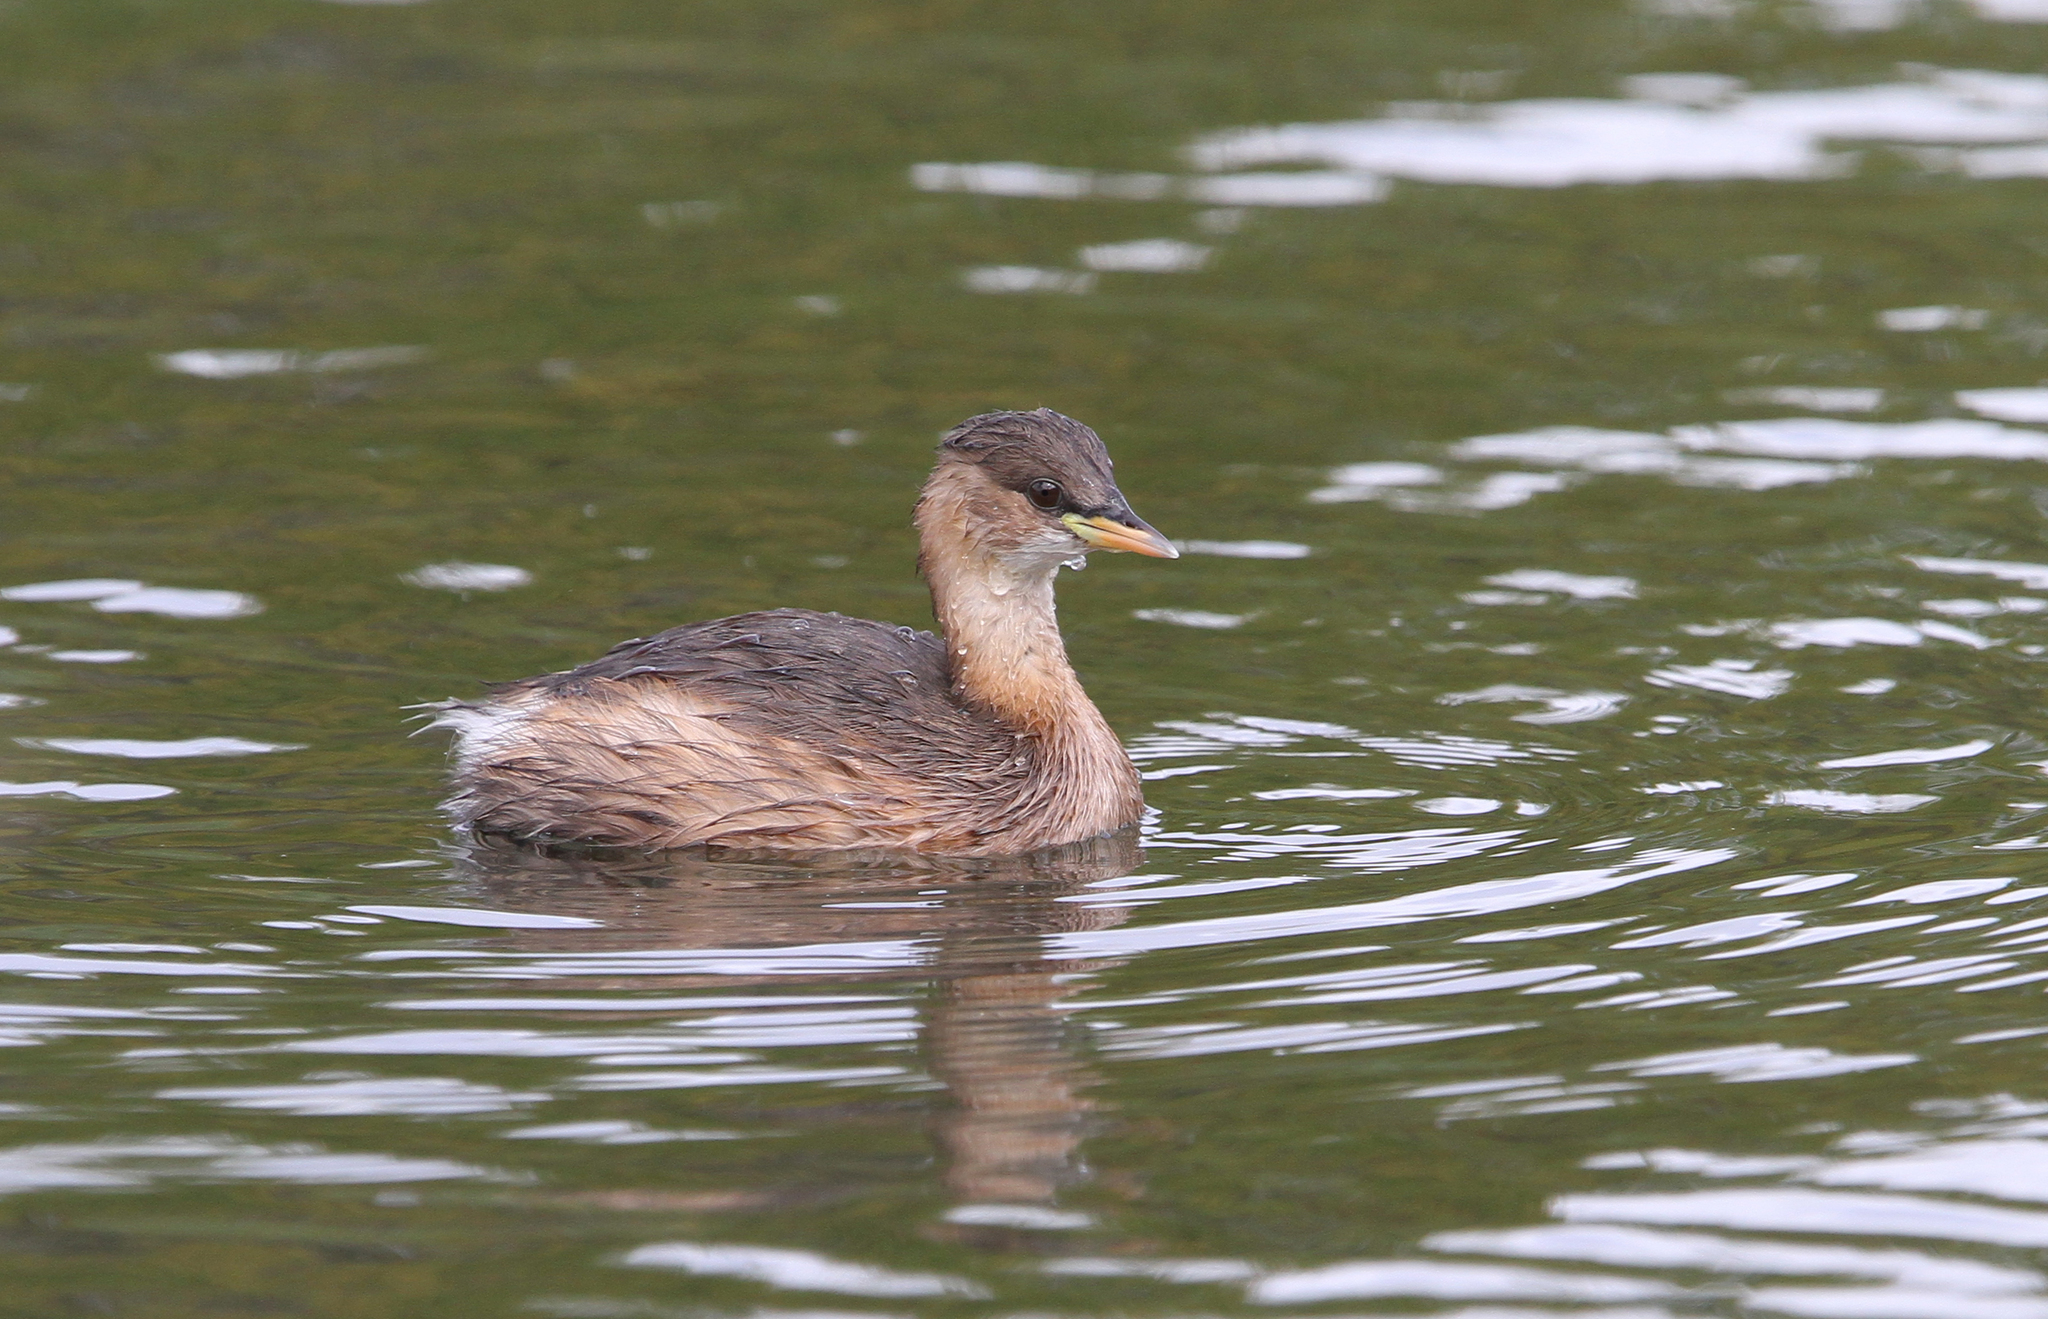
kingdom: Animalia
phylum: Chordata
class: Aves
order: Podicipediformes
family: Podicipedidae
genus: Tachybaptus
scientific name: Tachybaptus ruficollis
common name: Little grebe
